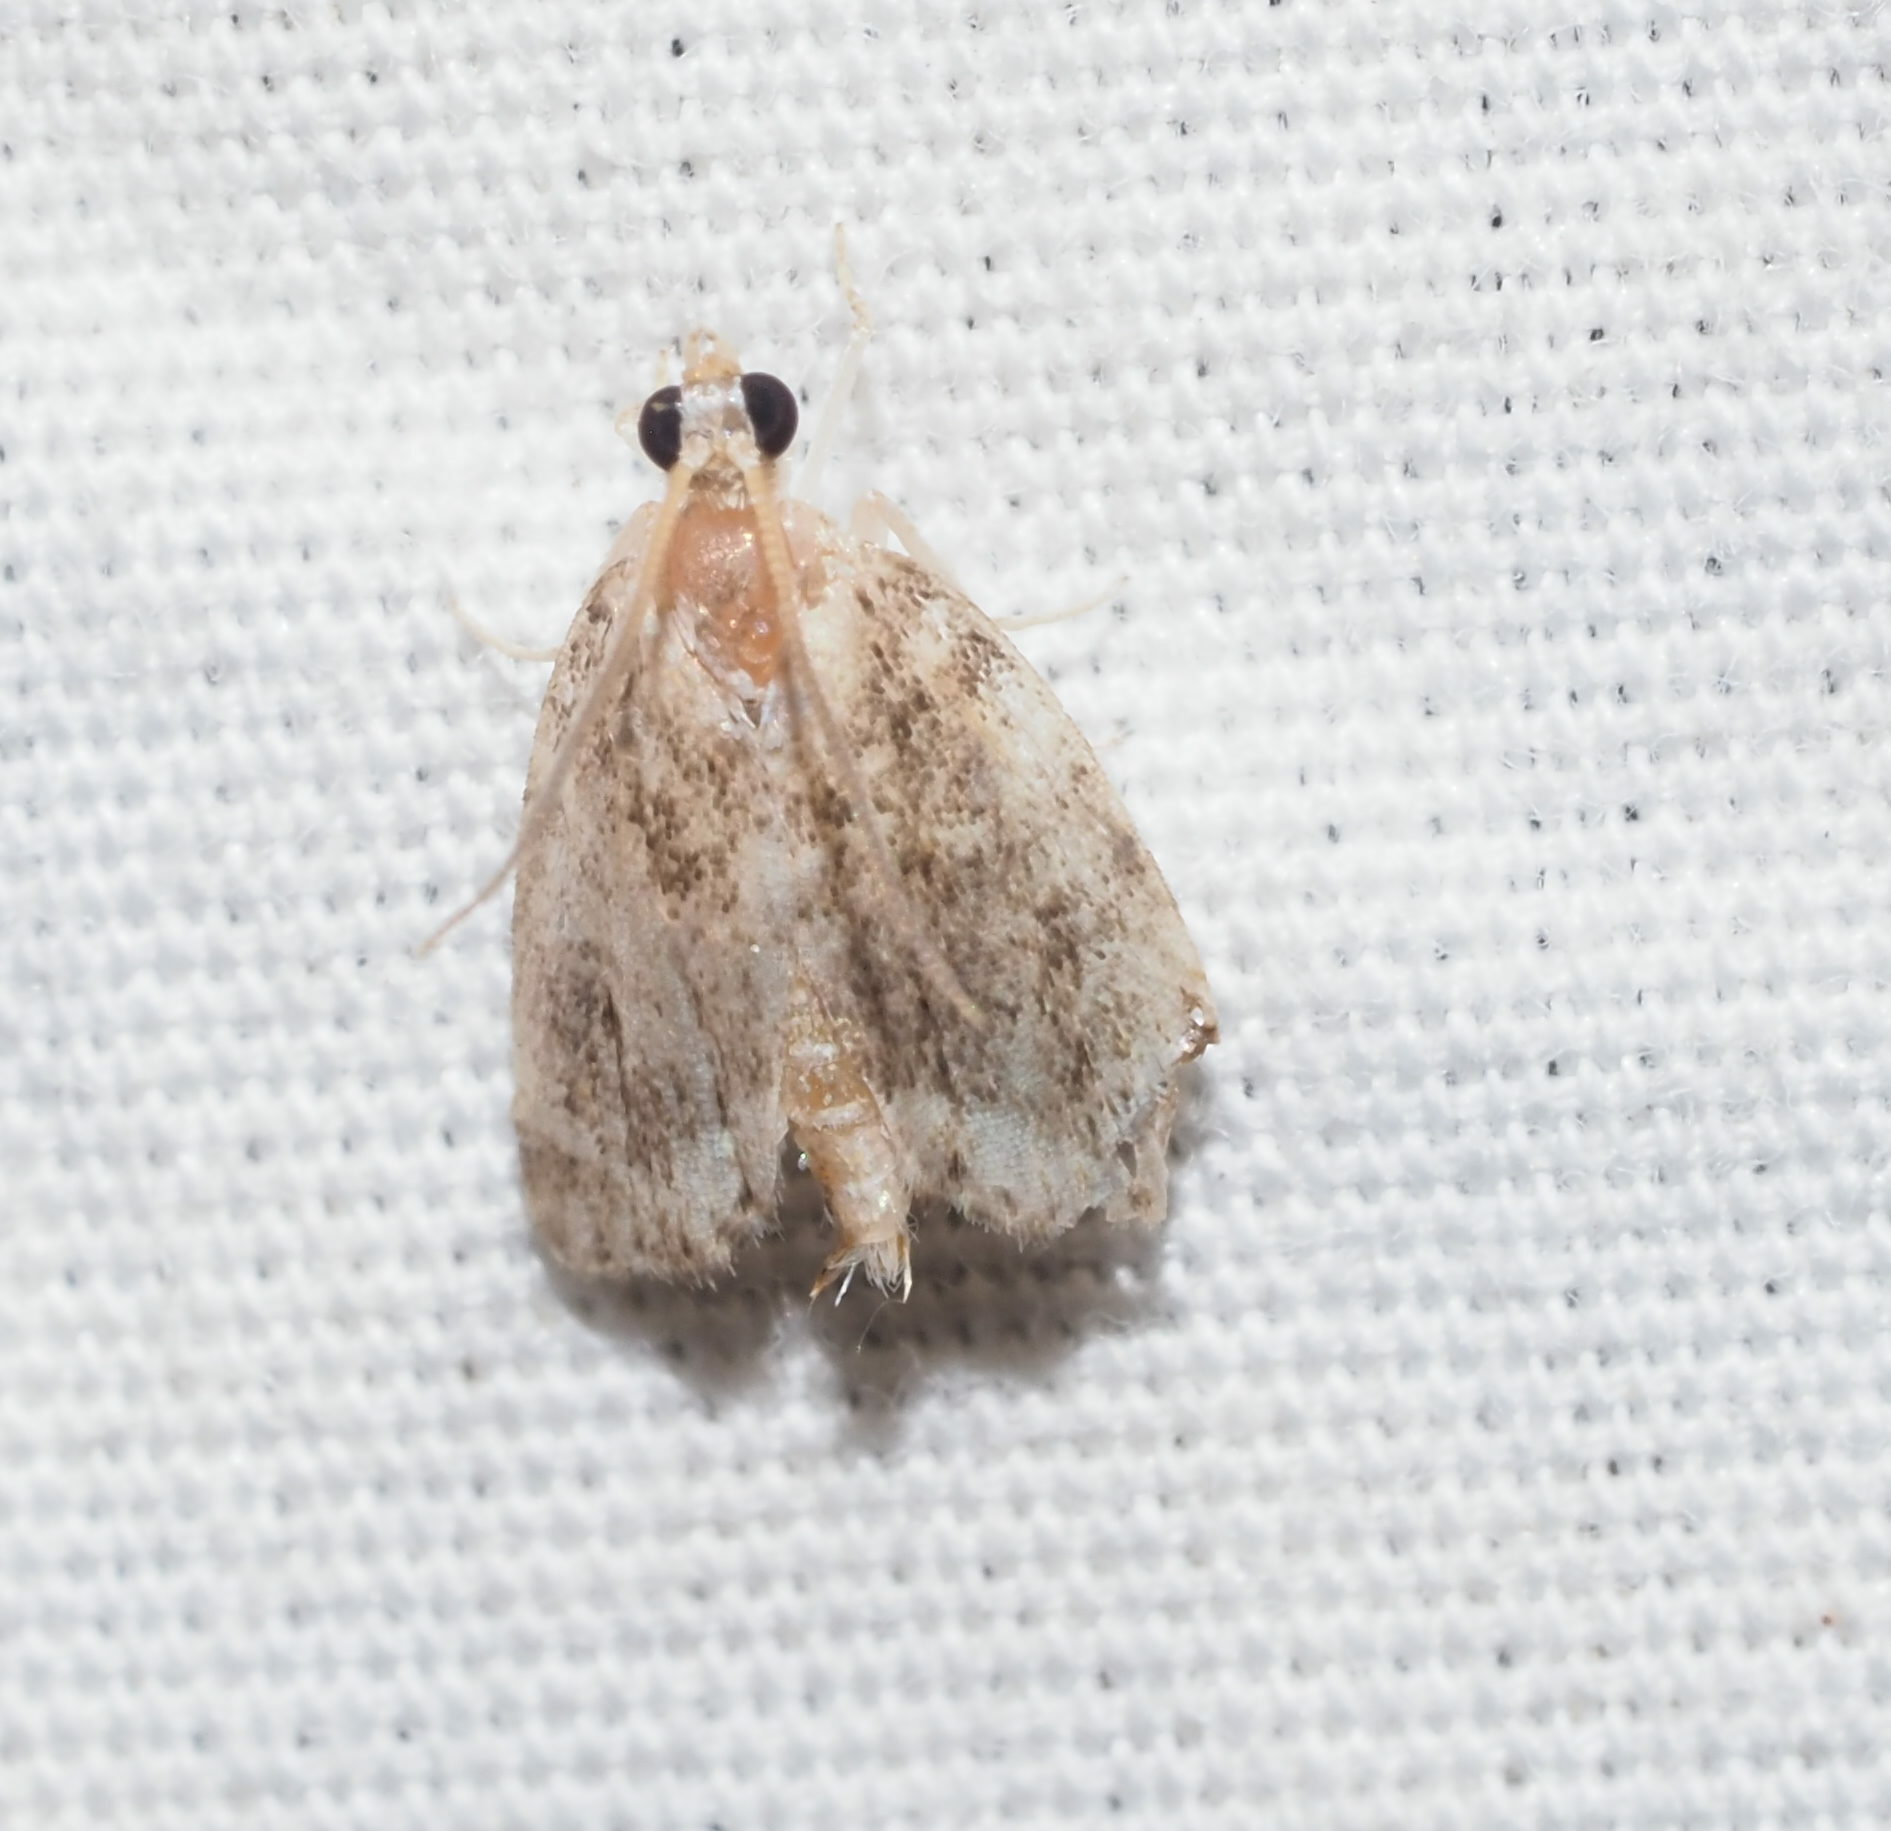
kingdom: Animalia
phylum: Arthropoda
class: Insecta
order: Lepidoptera
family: Crambidae
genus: Mestolobes
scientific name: Mestolobes abnormis
